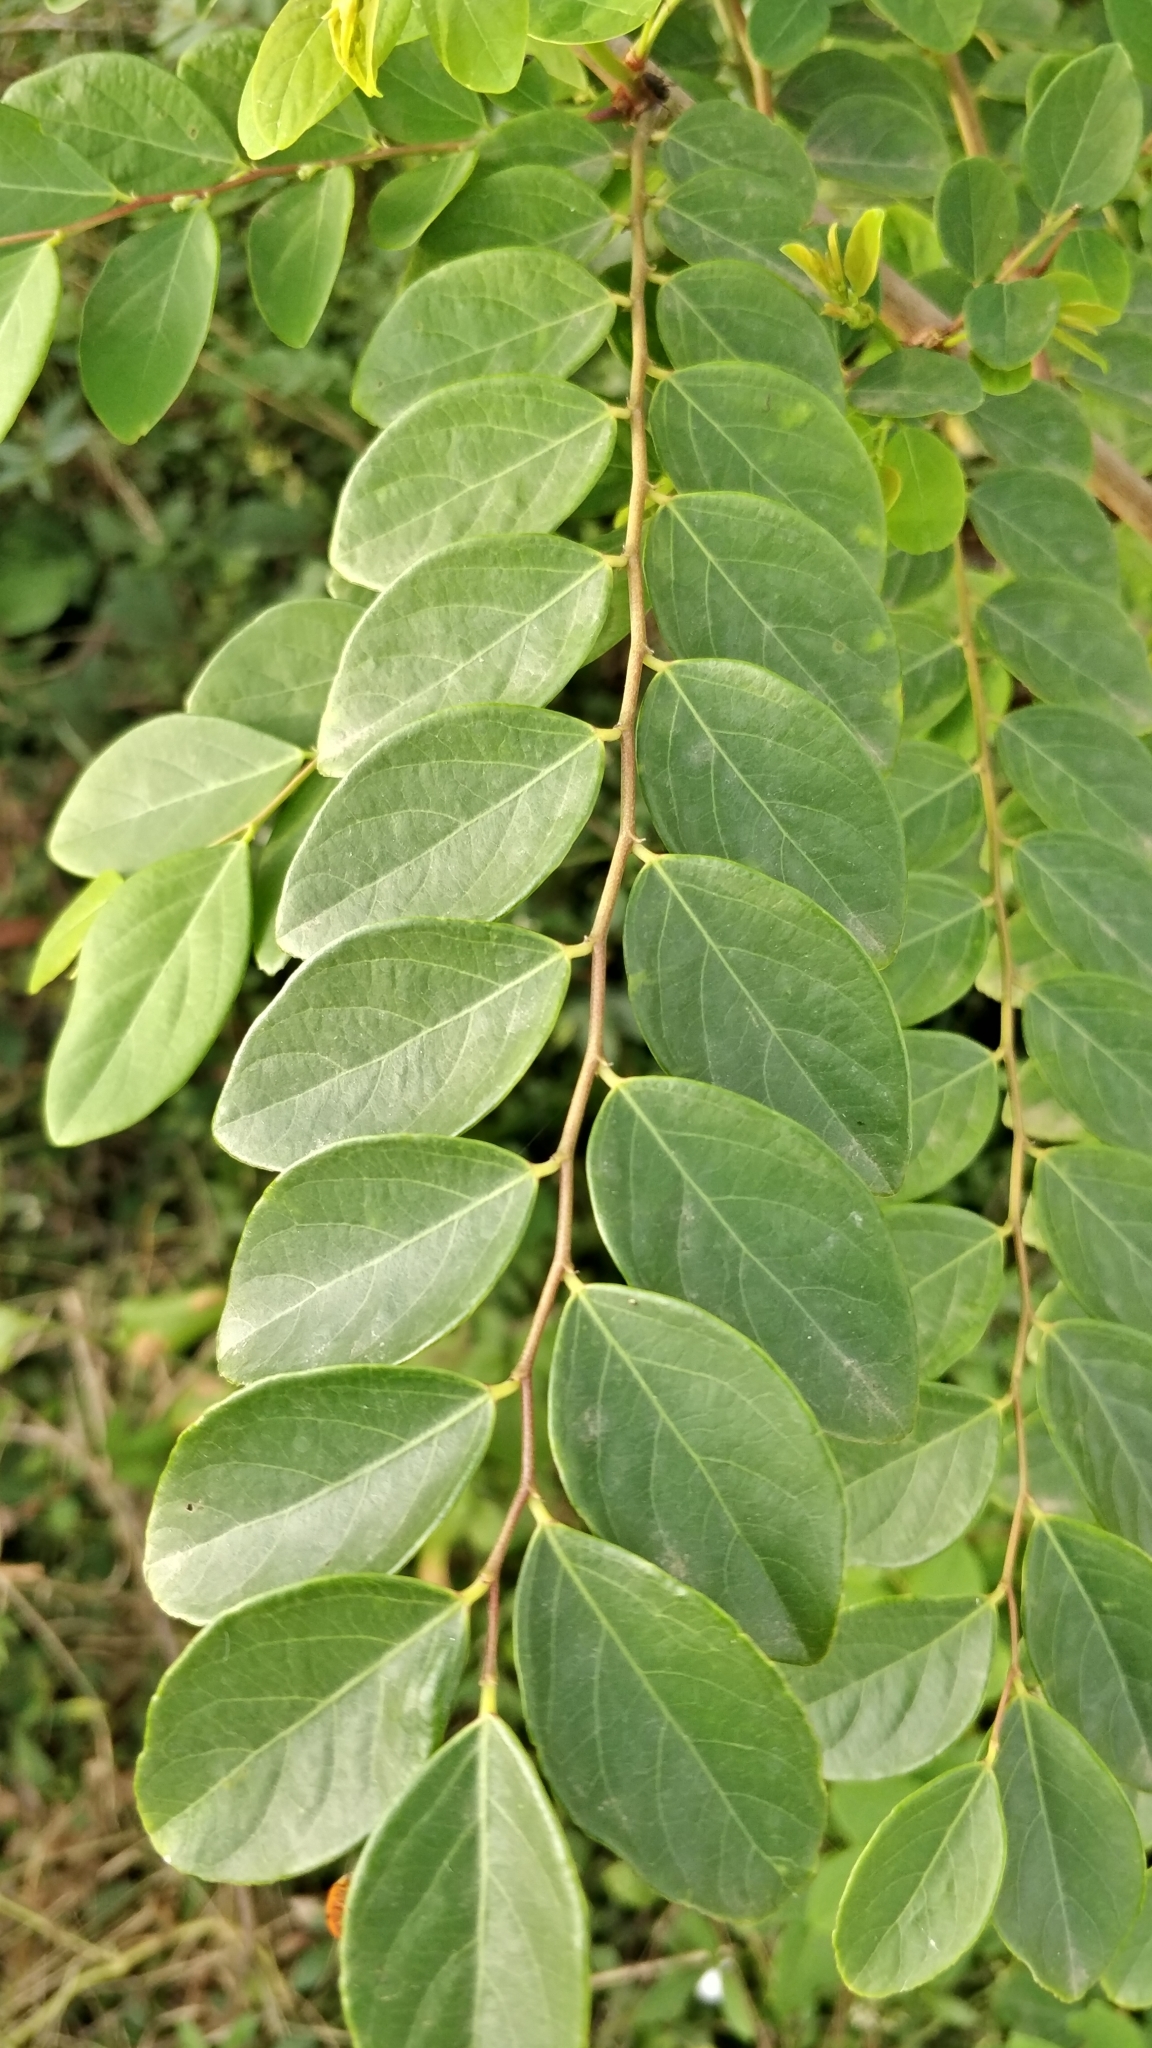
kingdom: Plantae
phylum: Tracheophyta
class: Magnoliopsida
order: Malpighiales
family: Phyllanthaceae
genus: Breynia
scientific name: Breynia vitis-idaea
